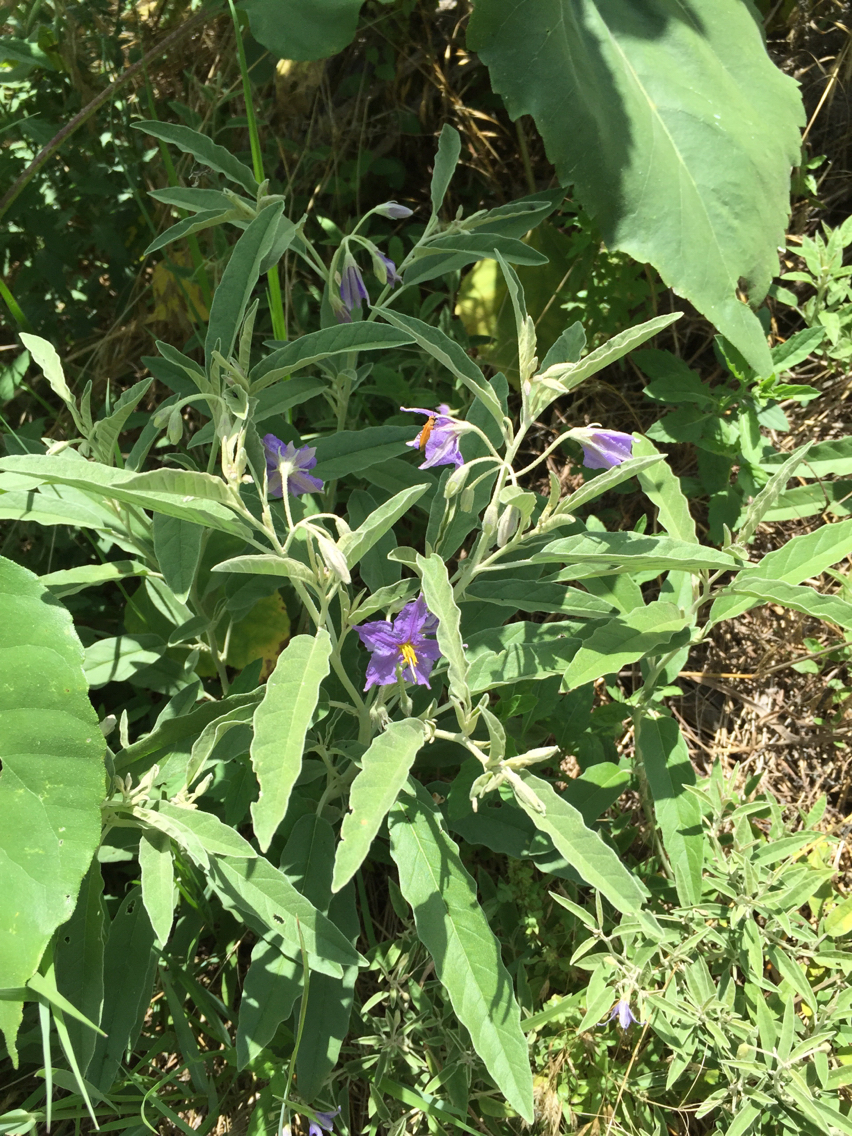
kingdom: Plantae
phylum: Tracheophyta
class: Magnoliopsida
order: Solanales
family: Solanaceae
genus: Solanum
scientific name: Solanum elaeagnifolium
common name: Silverleaf nightshade
